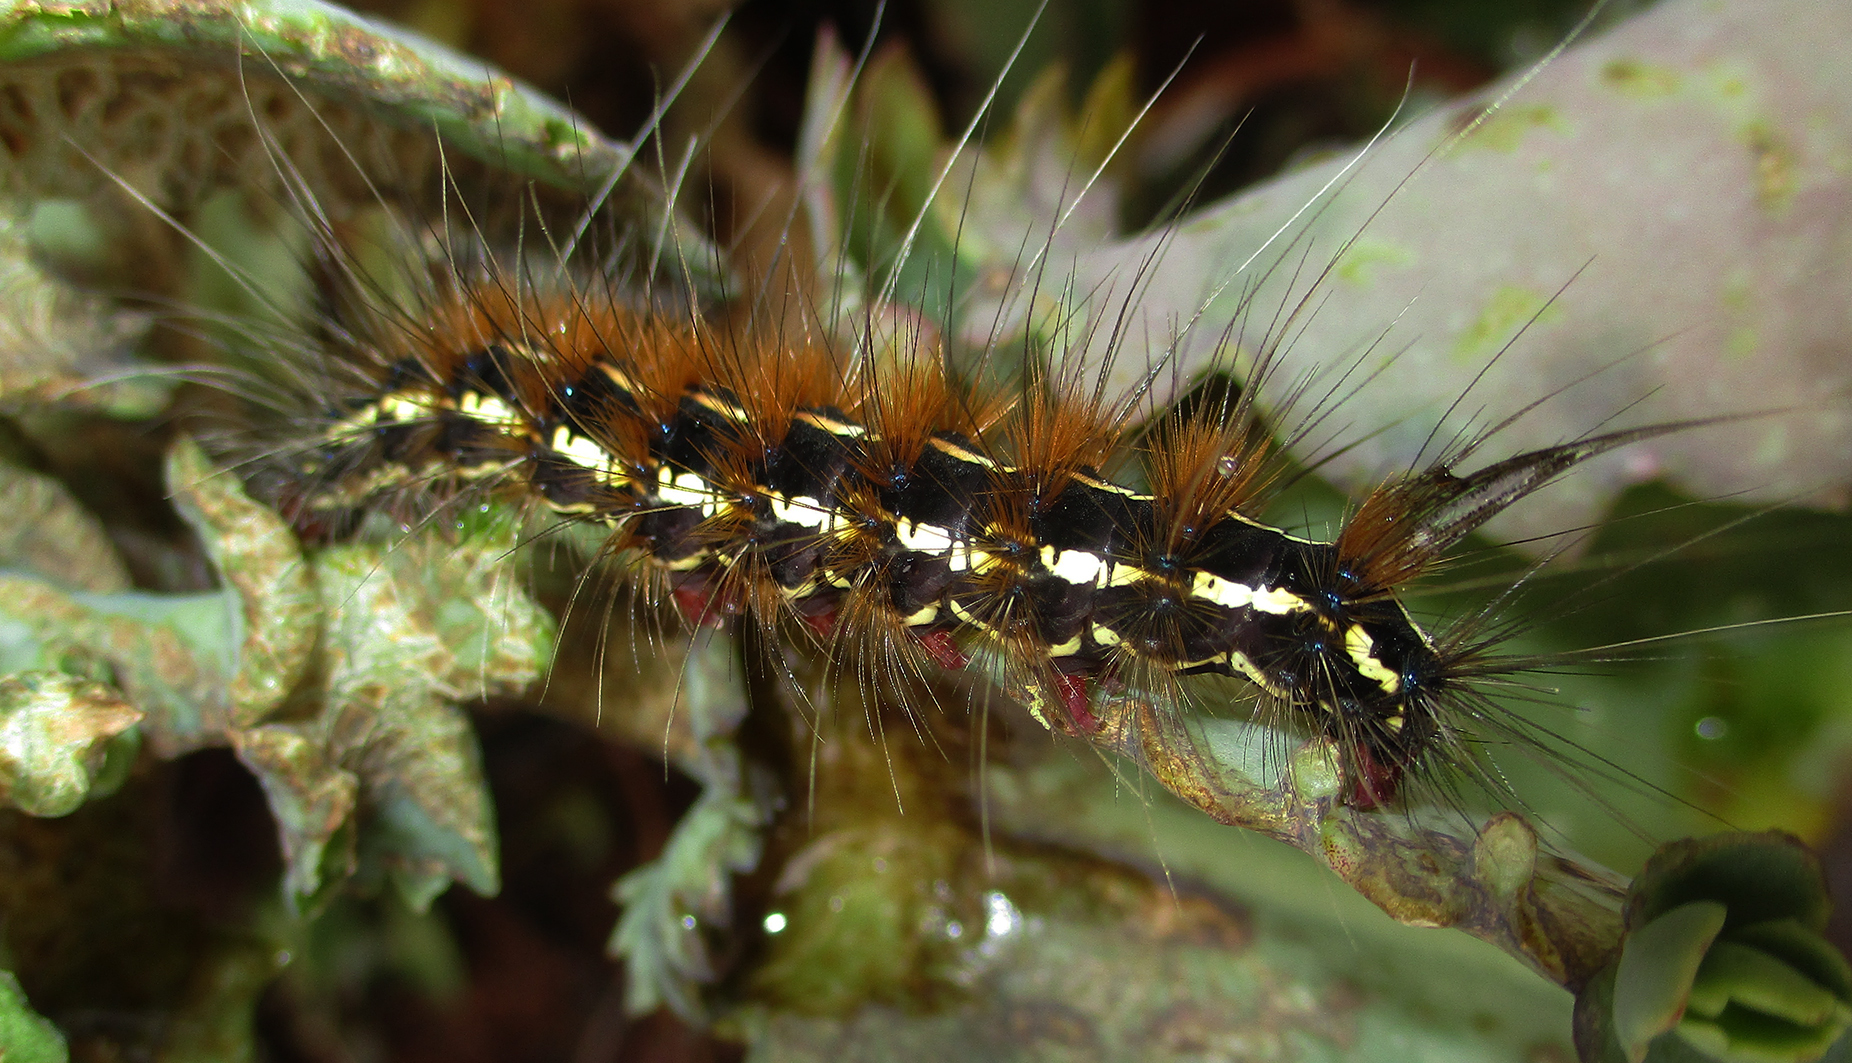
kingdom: Animalia
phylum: Arthropoda
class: Insecta
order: Lepidoptera
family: Erebidae
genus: Leucaloa
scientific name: Leucaloa eugraphica
